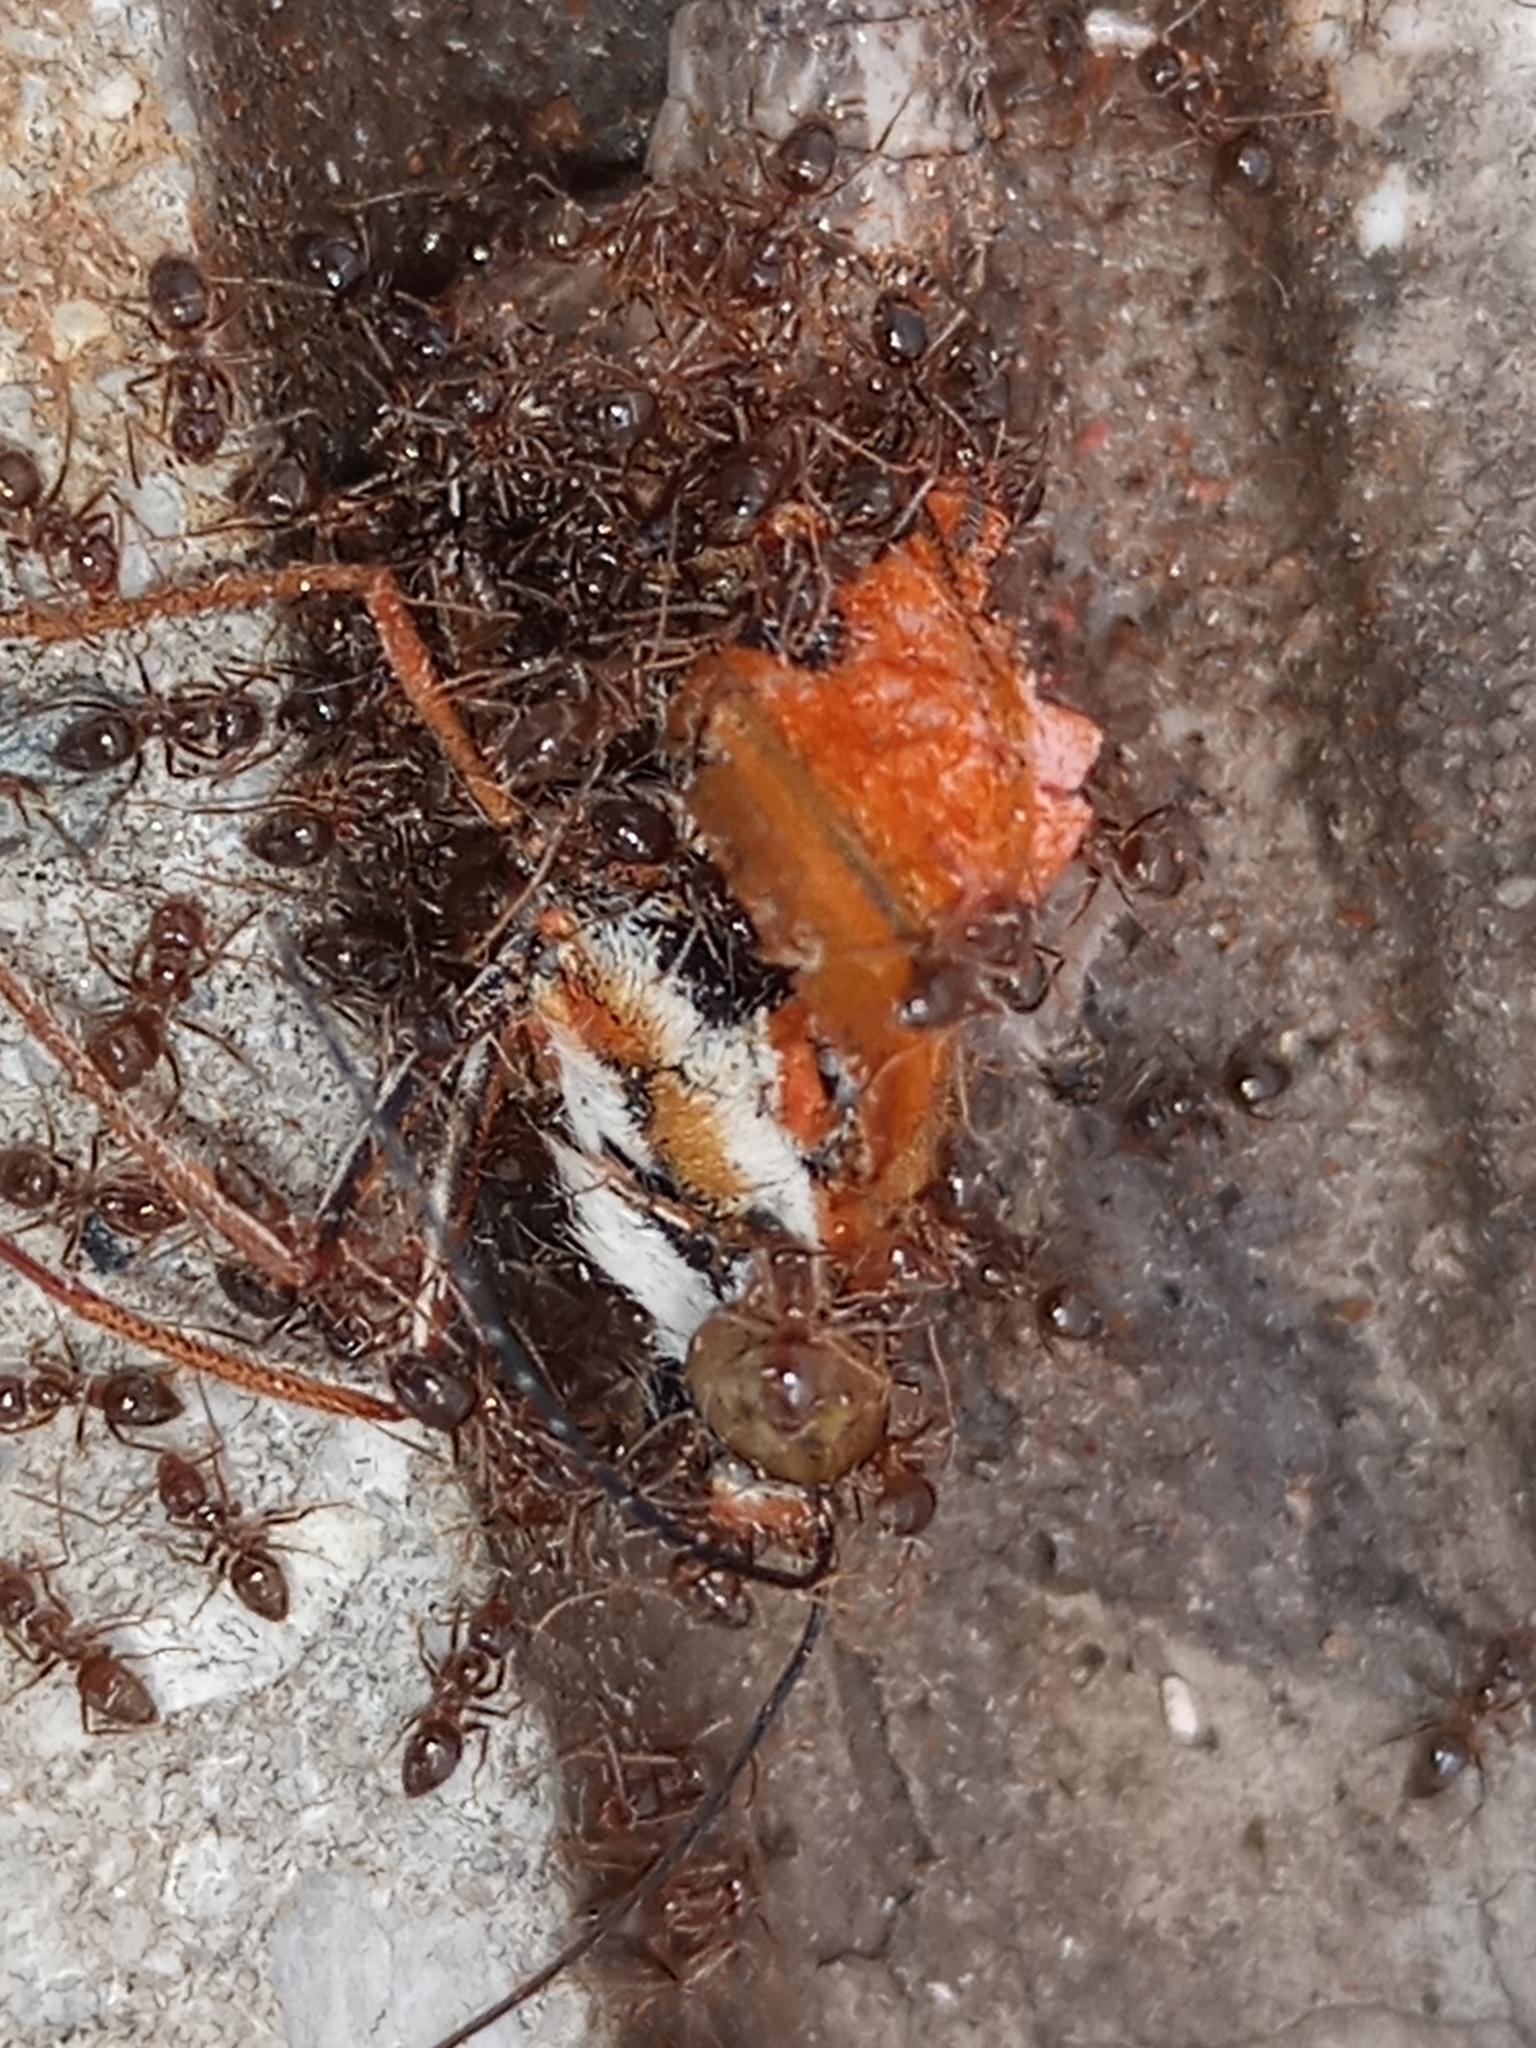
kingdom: Animalia
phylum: Arthropoda
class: Insecta
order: Lepidoptera
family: Nymphalidae
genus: Dione
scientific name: Dione vanillae
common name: Gulf fritillary
